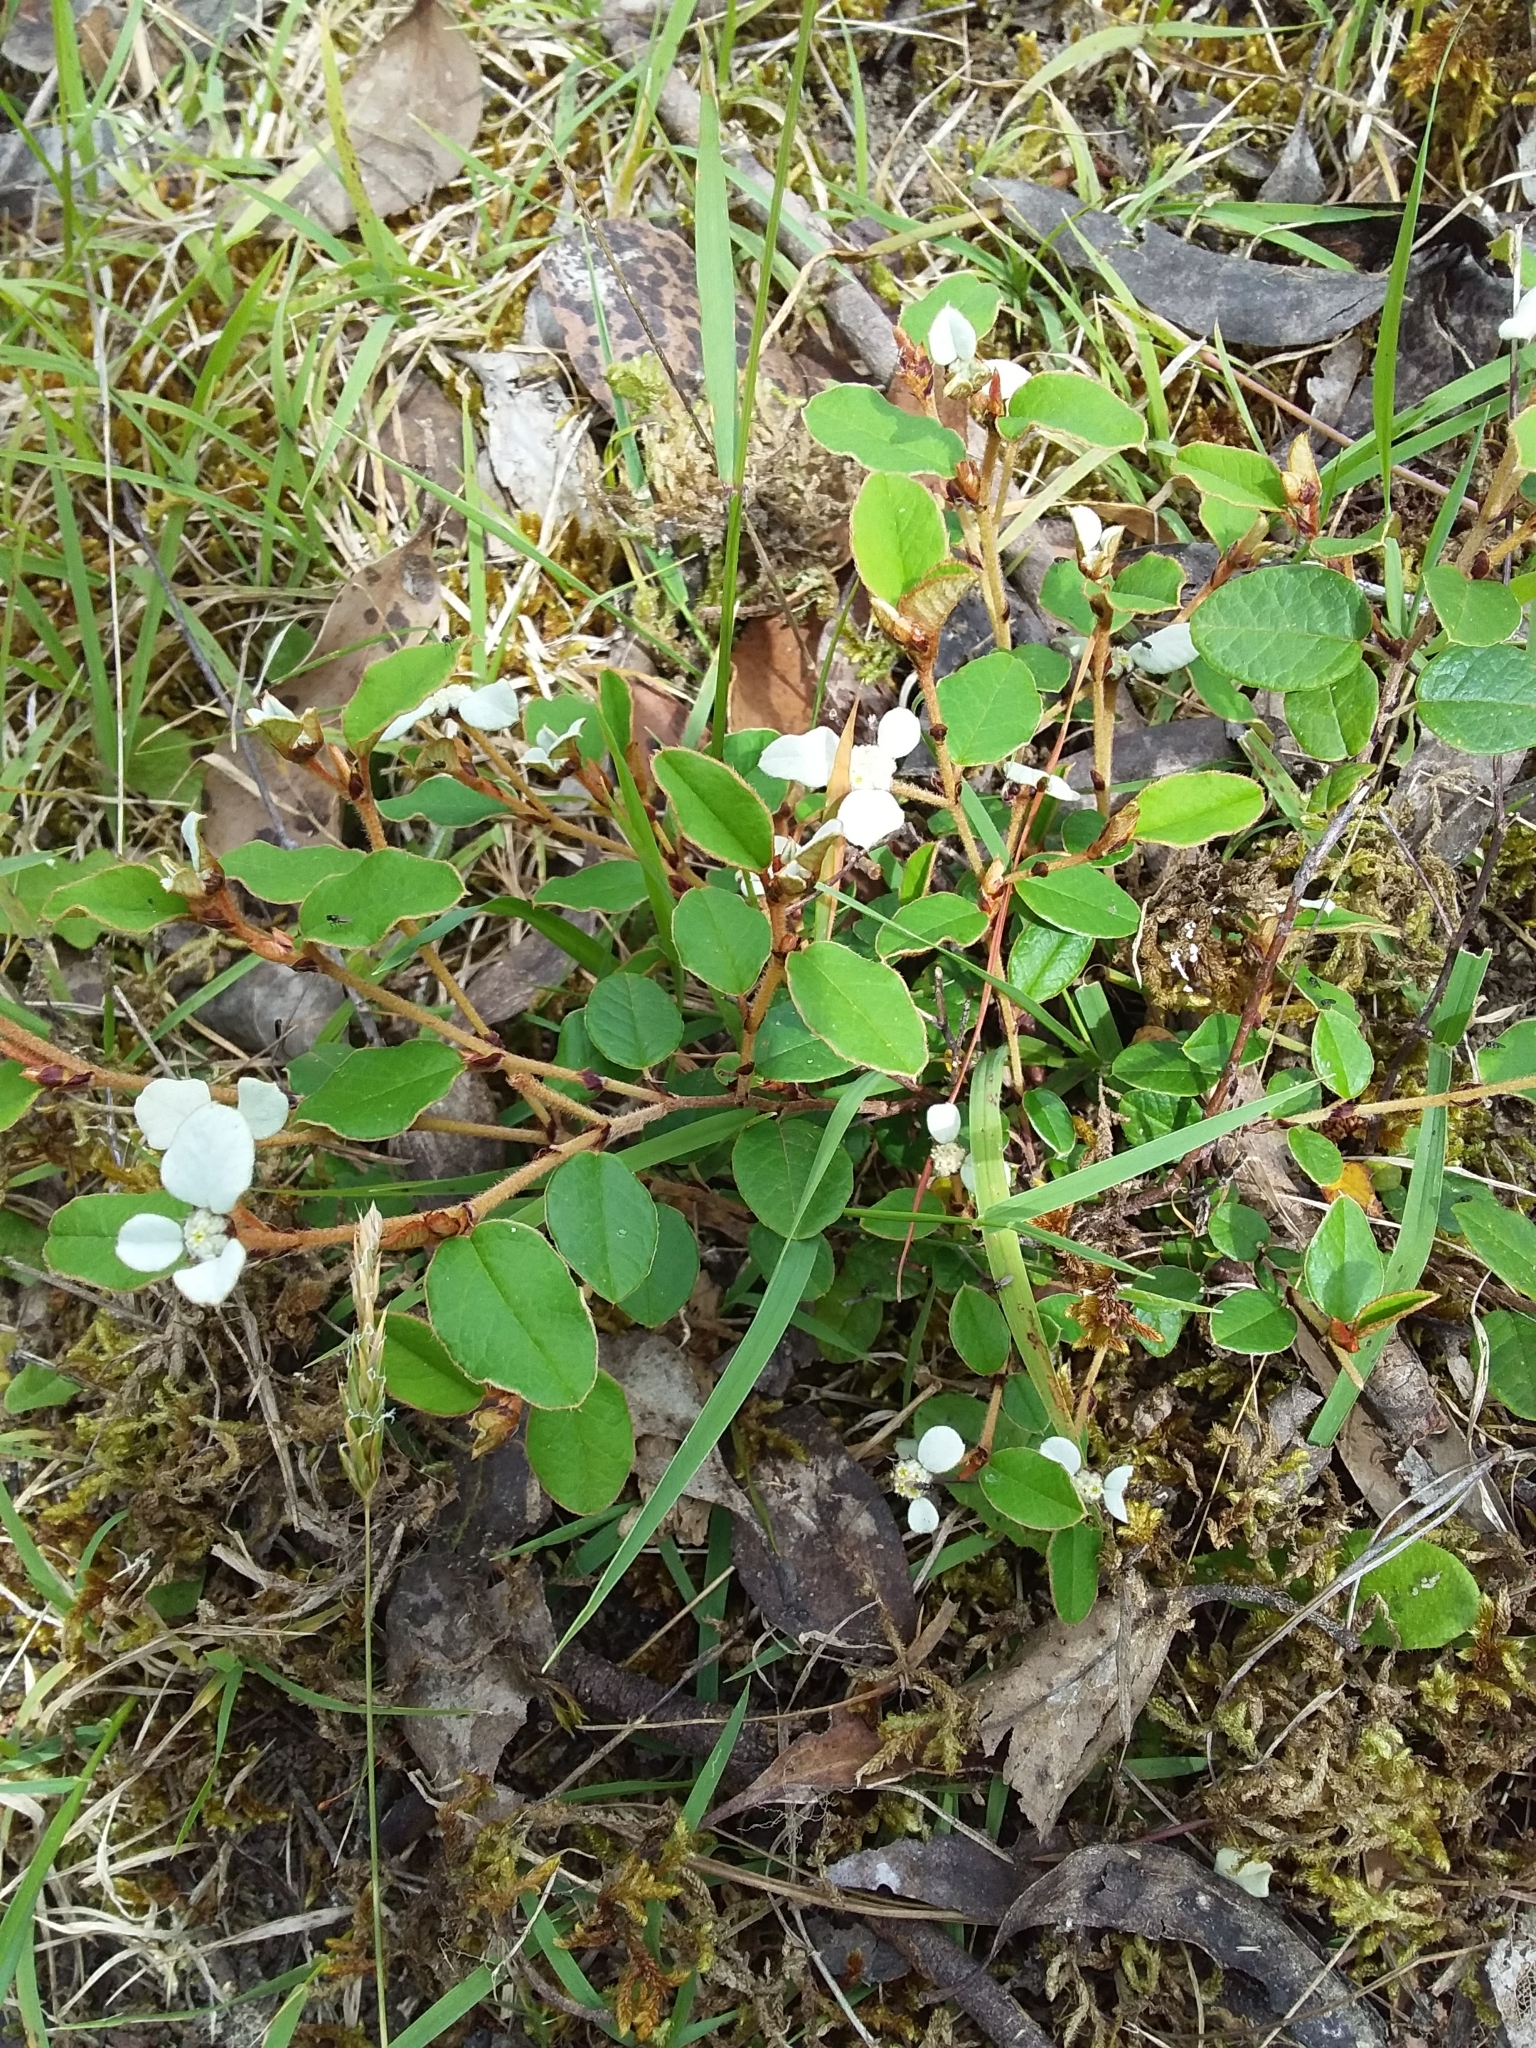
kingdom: Plantae
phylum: Tracheophyta
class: Magnoliopsida
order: Rosales
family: Rhamnaceae
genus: Spyridium
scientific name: Spyridium thymifolium
